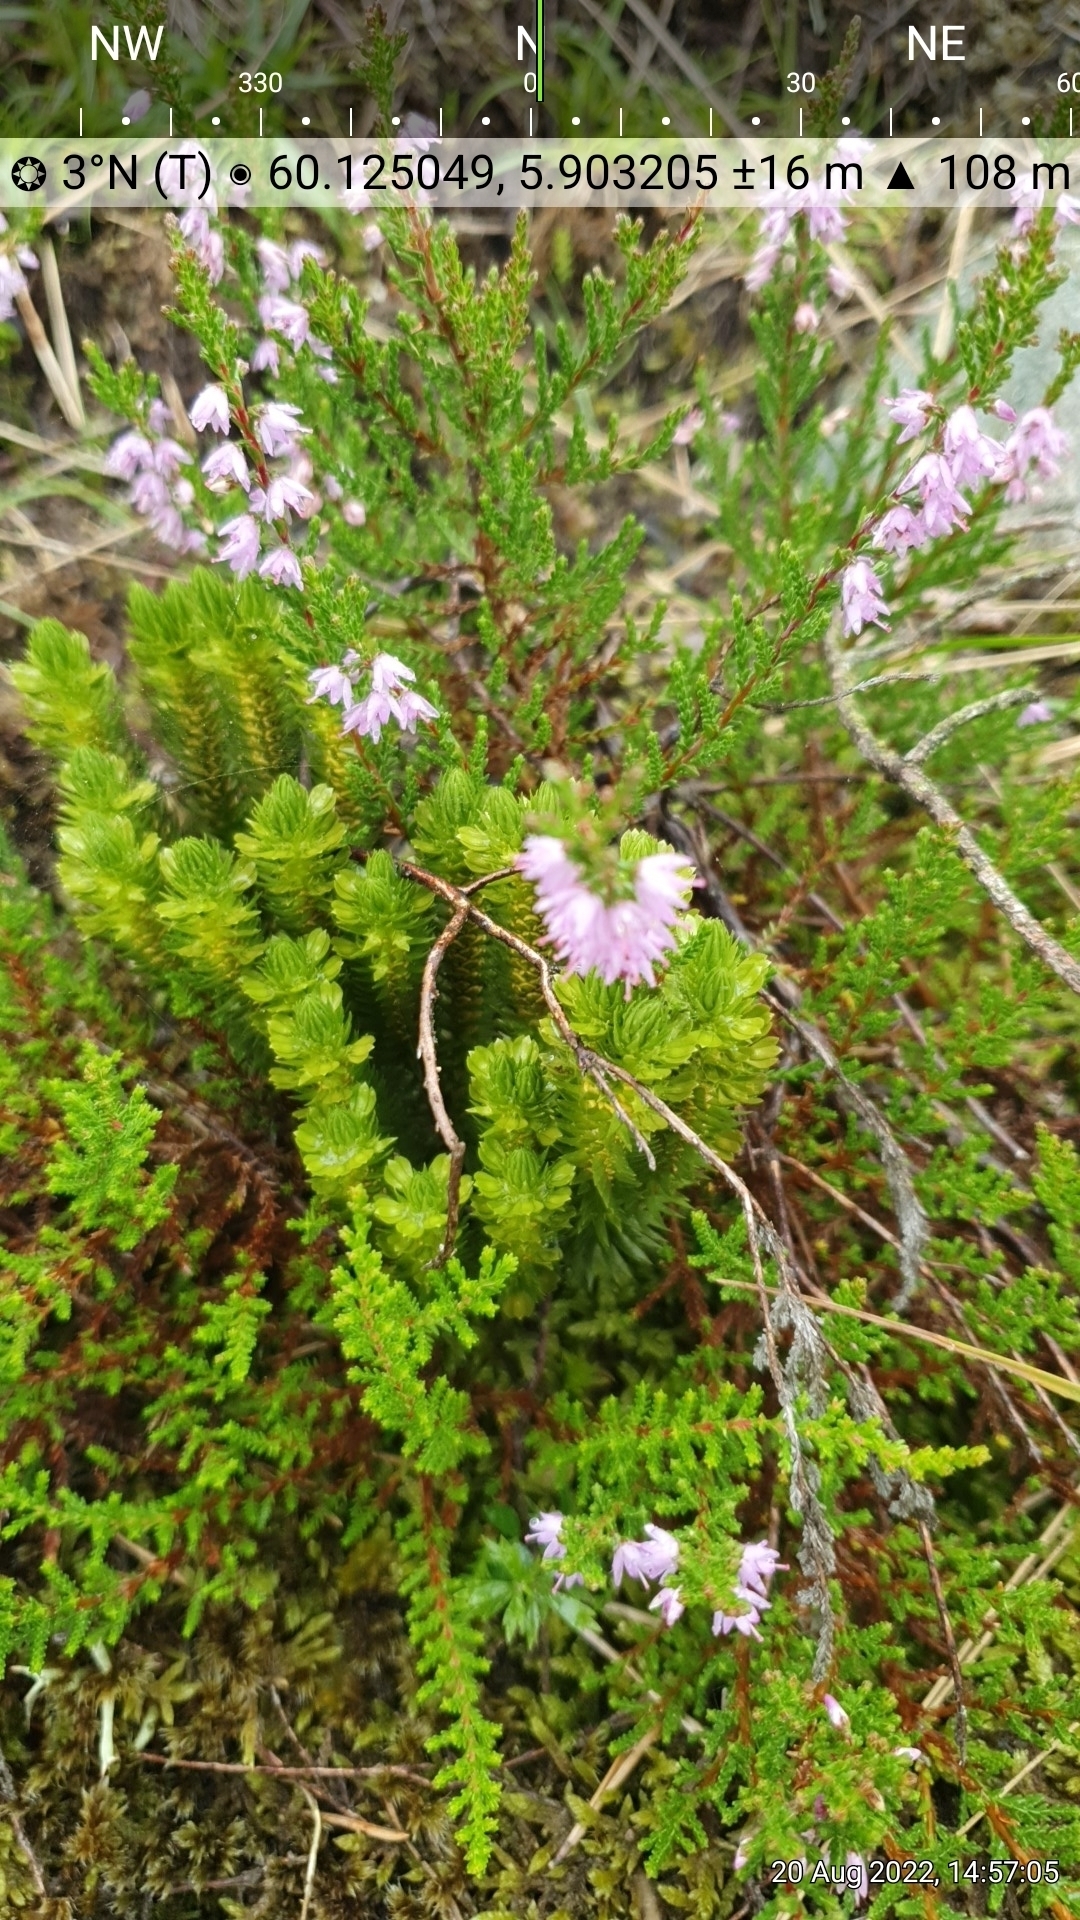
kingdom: Plantae
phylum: Tracheophyta
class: Lycopodiopsida
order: Lycopodiales
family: Lycopodiaceae
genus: Huperzia
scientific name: Huperzia selago
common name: Northern firmoss
